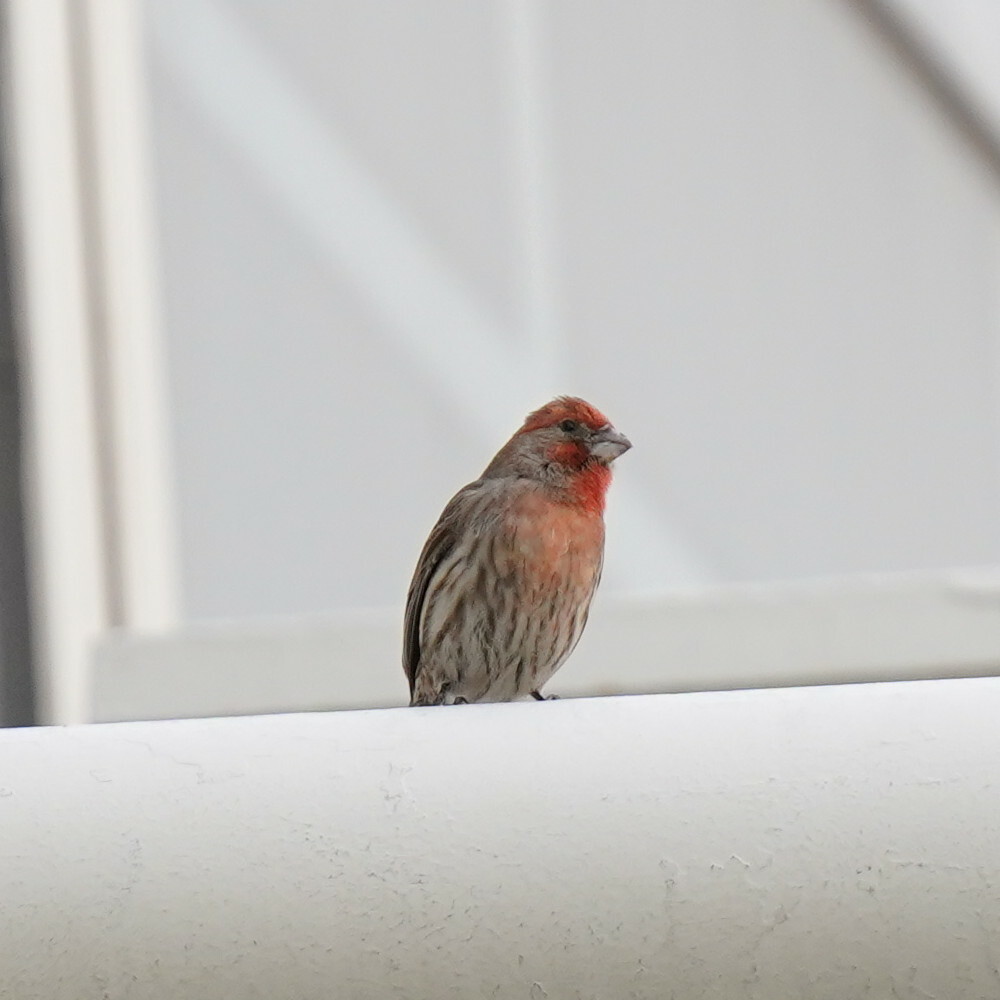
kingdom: Animalia
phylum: Chordata
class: Aves
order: Passeriformes
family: Fringillidae
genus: Haemorhous
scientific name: Haemorhous mexicanus
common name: House finch
